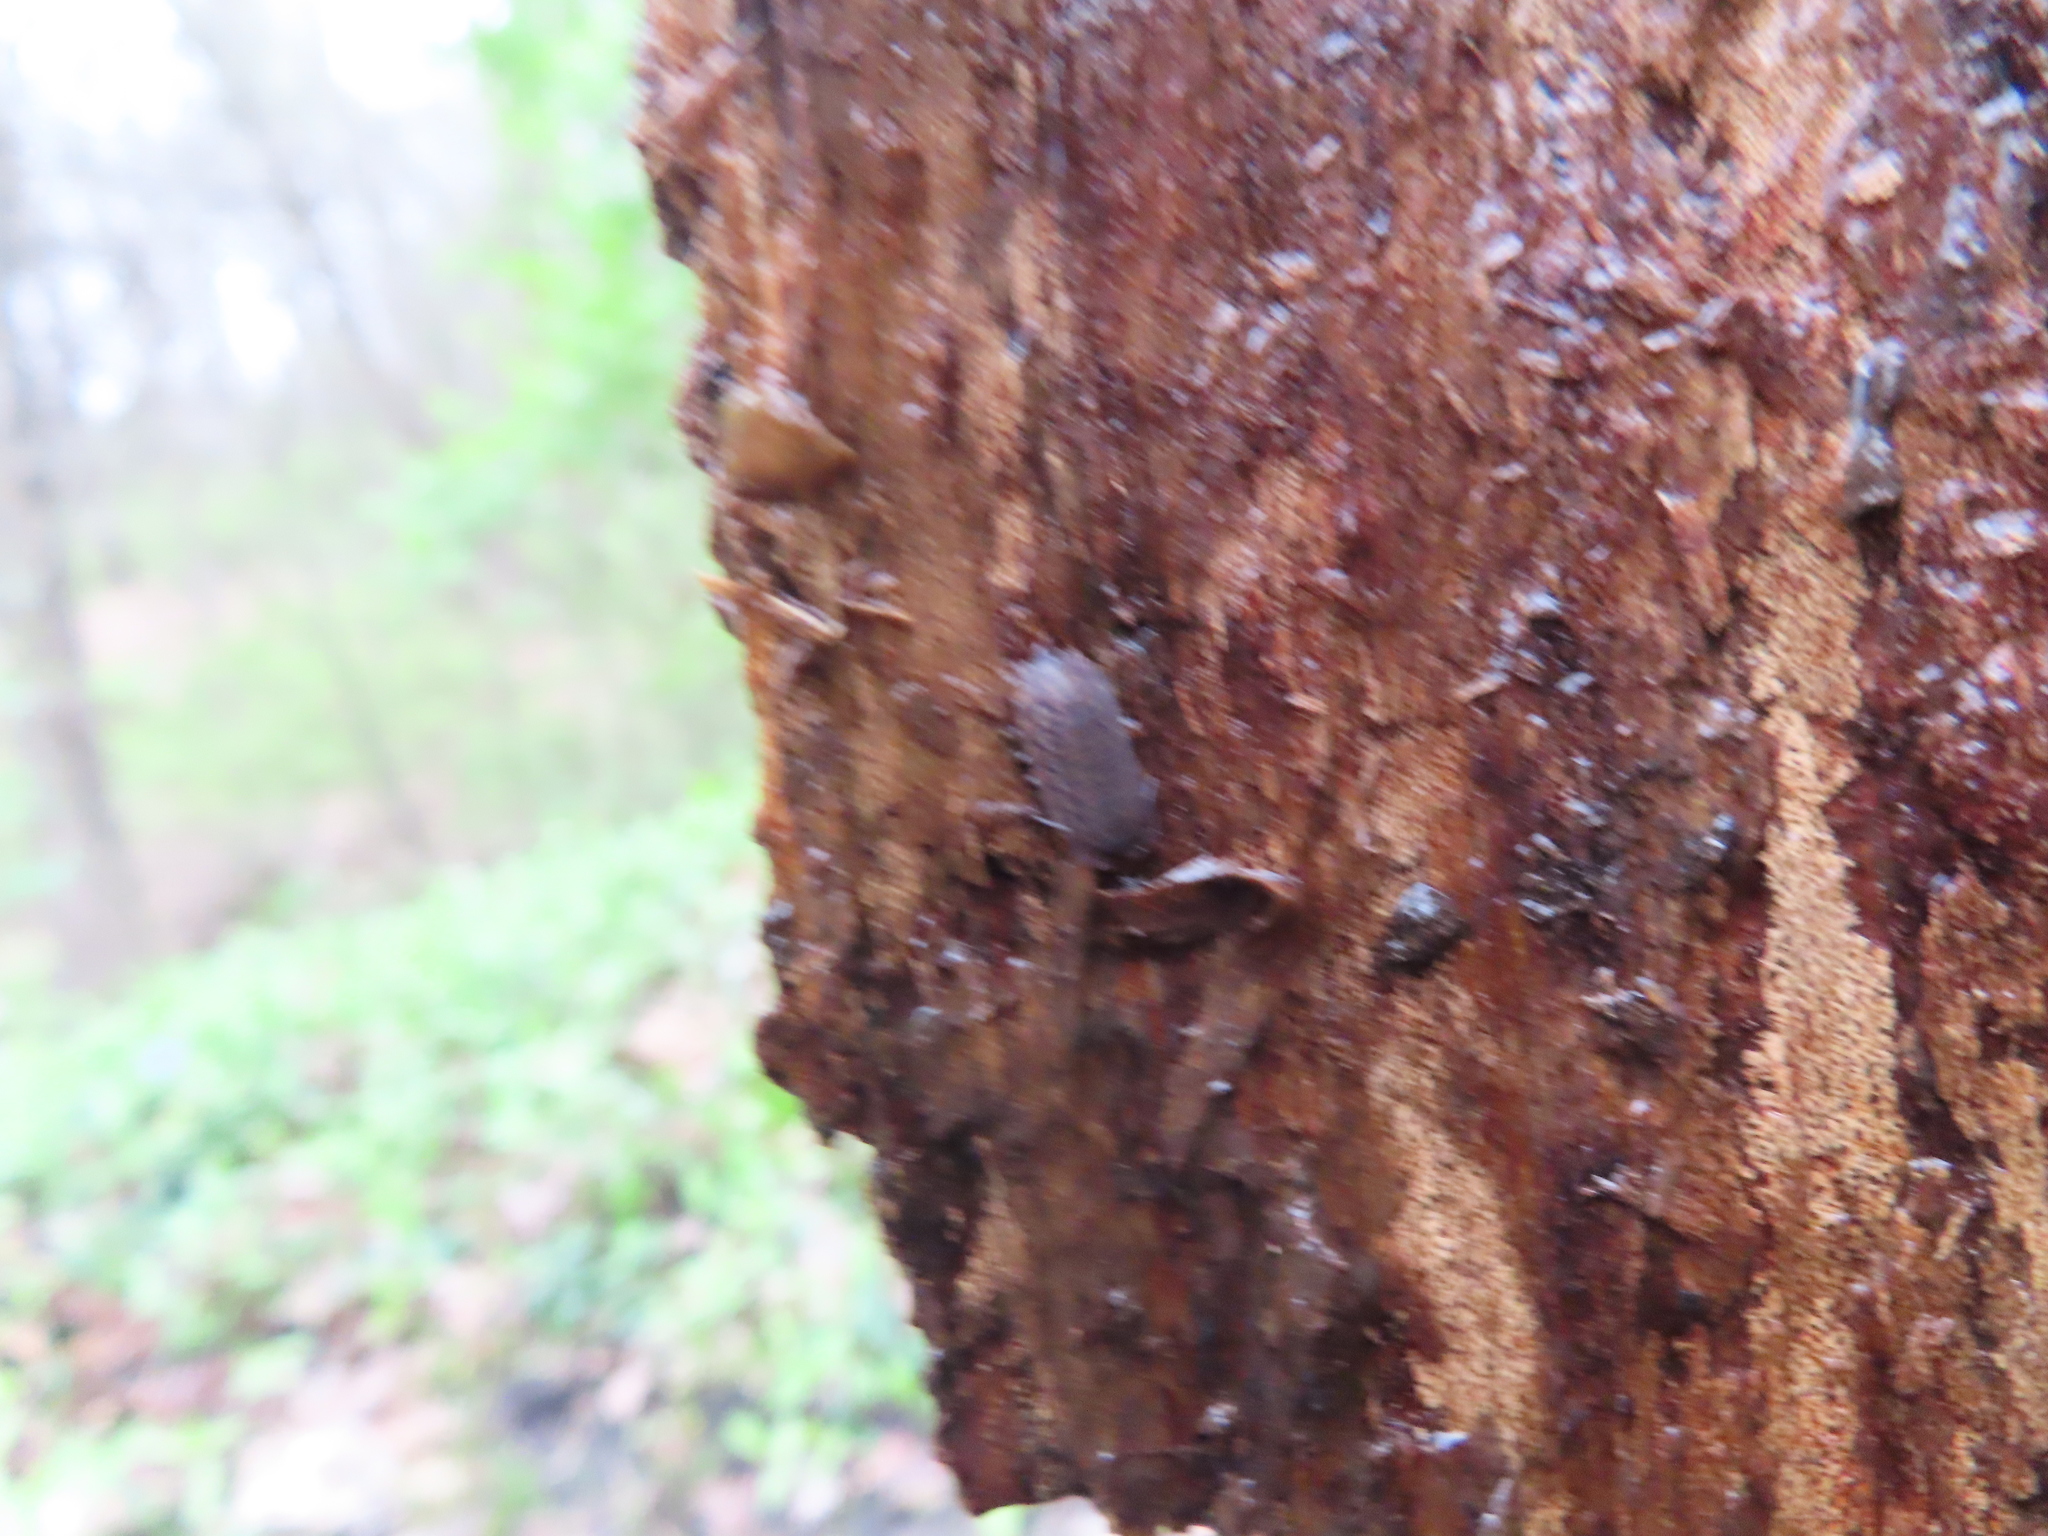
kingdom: Animalia
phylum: Arthropoda
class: Malacostraca
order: Isopoda
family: Trachelipodidae
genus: Trachelipus
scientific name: Trachelipus rathkii
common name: Isopod
